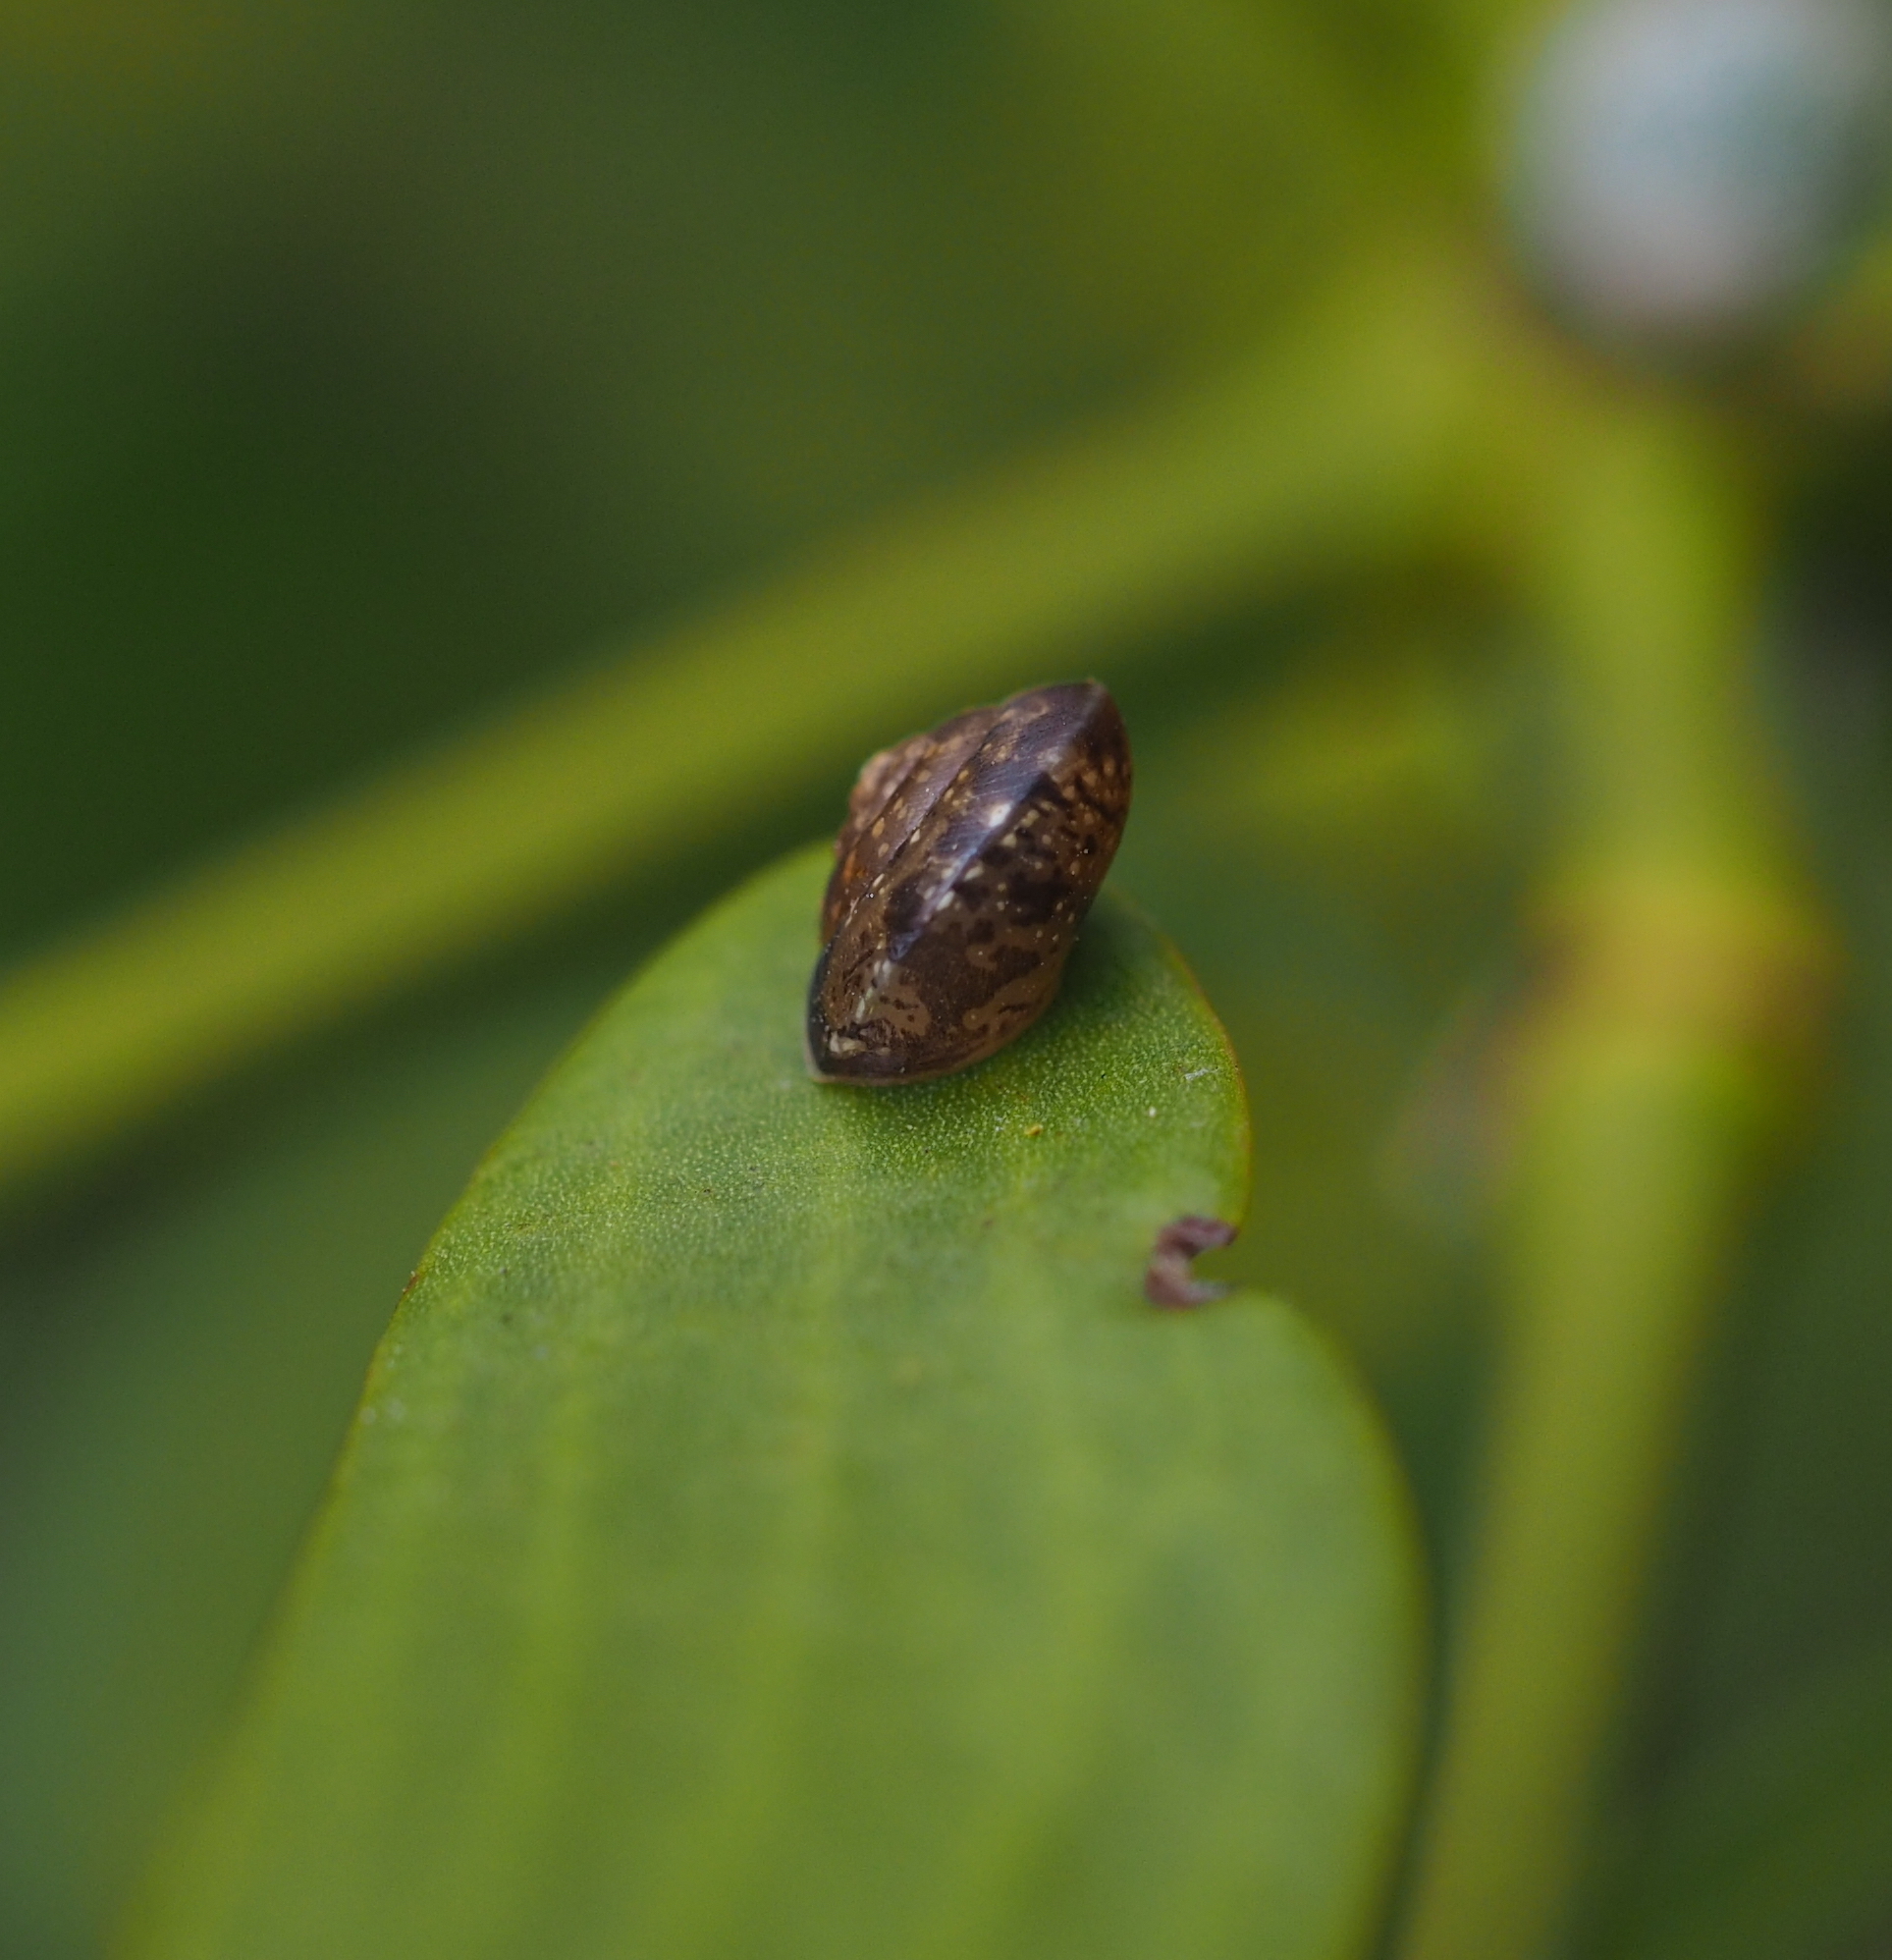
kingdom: Animalia
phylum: Mollusca
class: Gastropoda
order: Stylommatophora
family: Hygromiidae
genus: Hygromia
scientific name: Hygromia cinctella
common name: Girdled snail
